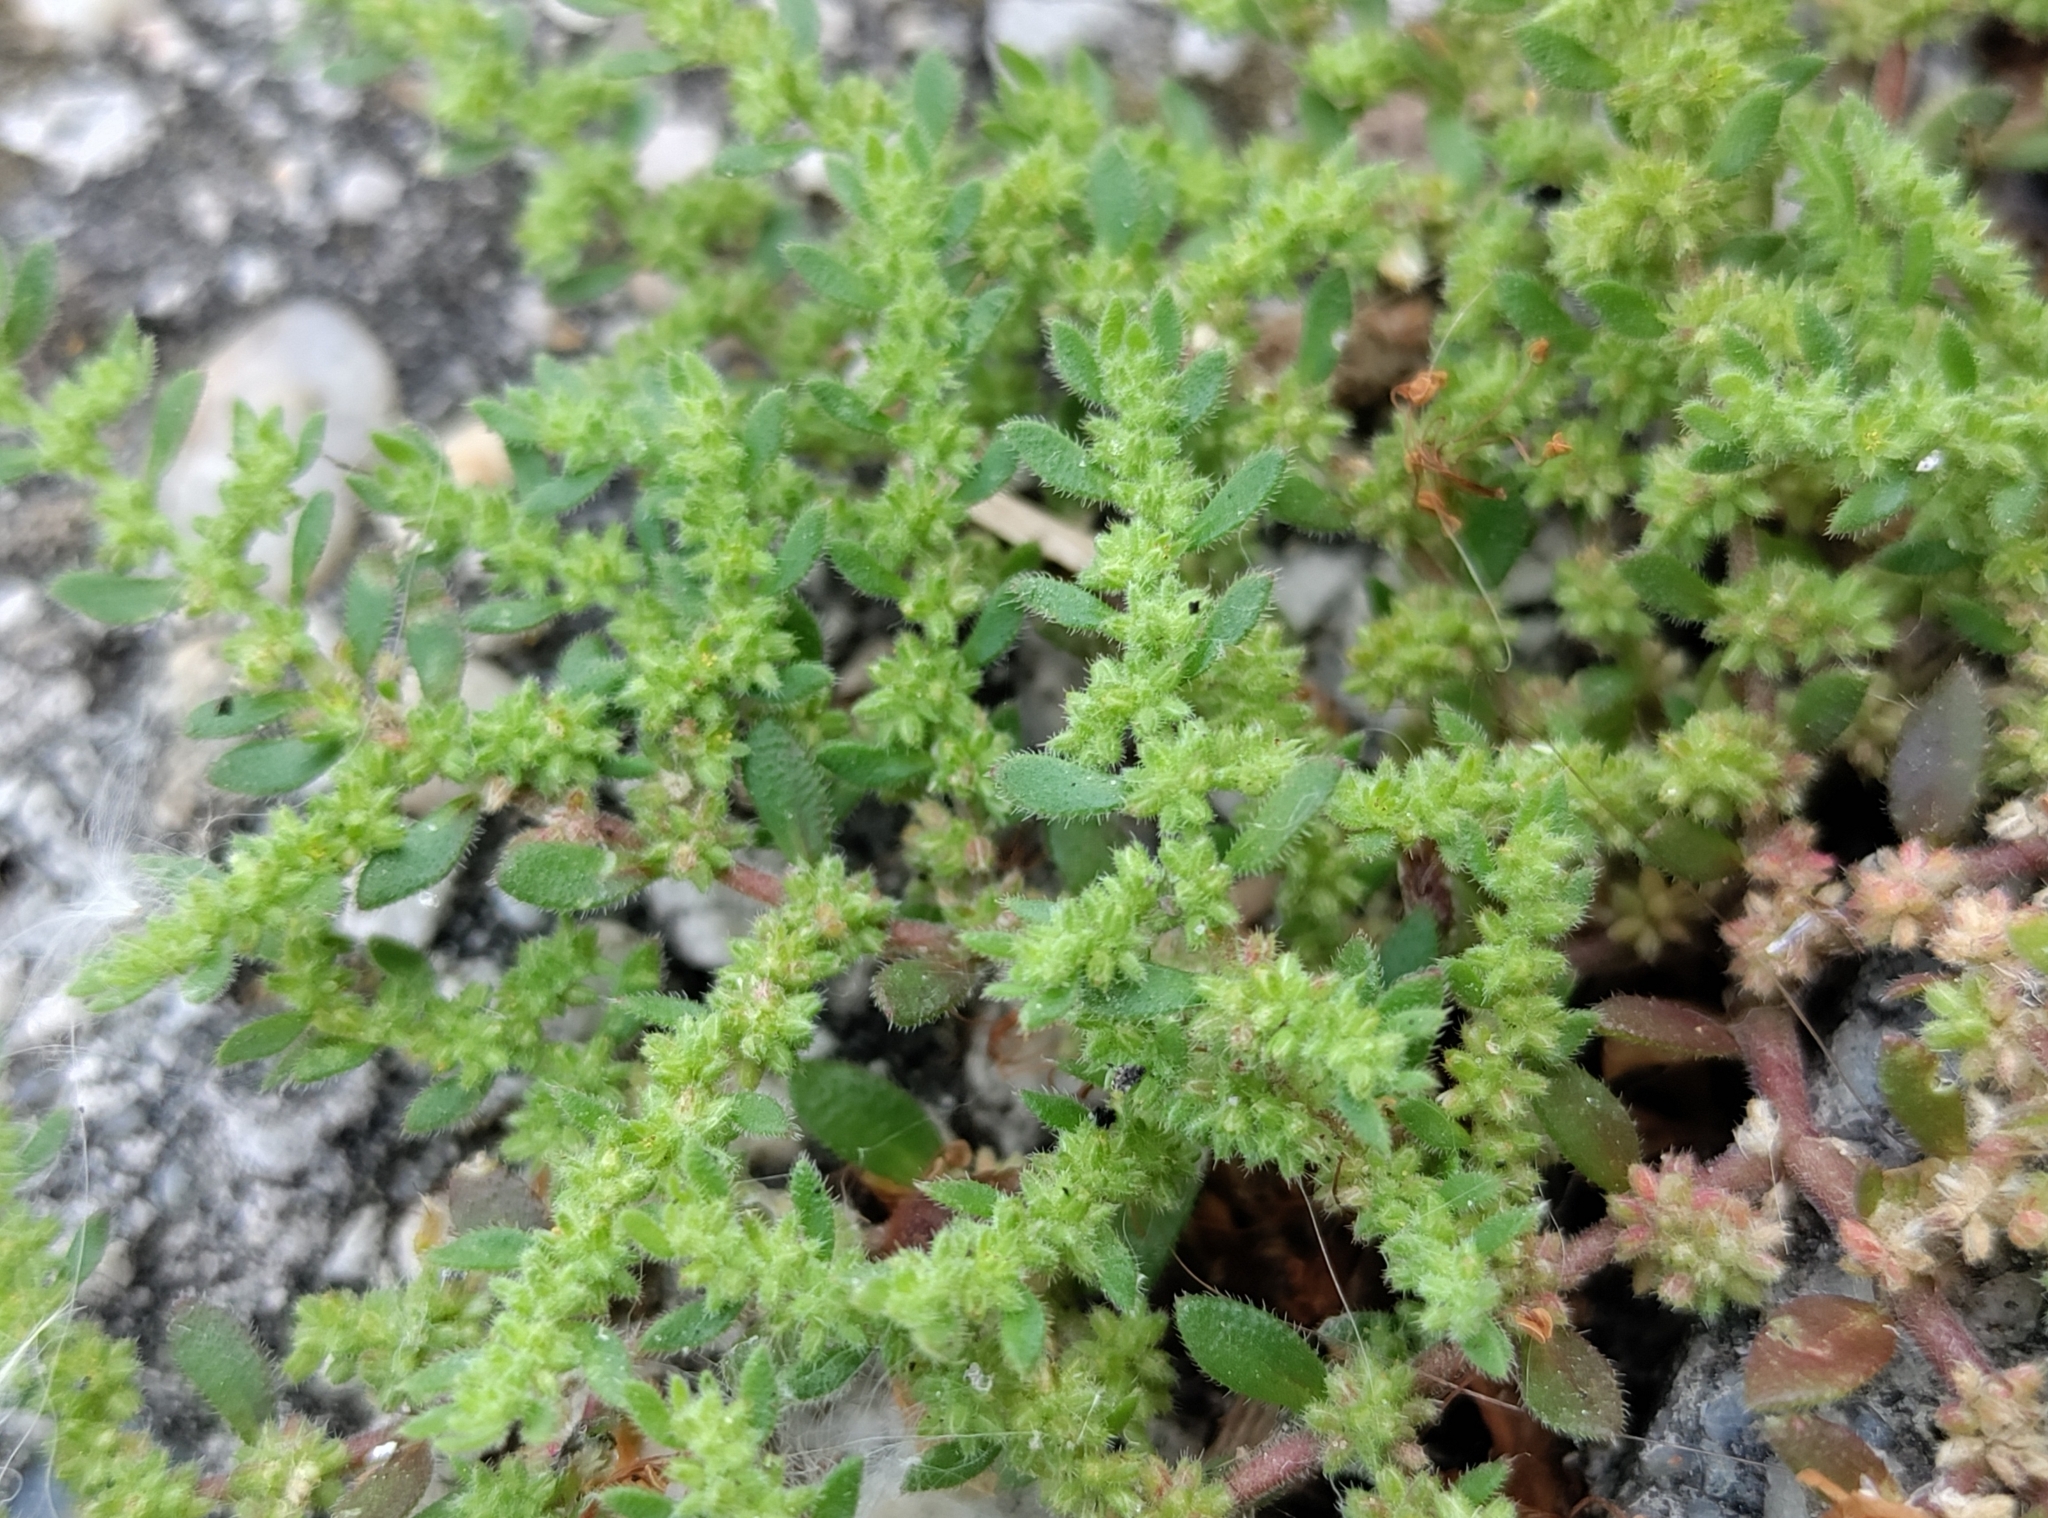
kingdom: Plantae
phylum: Tracheophyta
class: Magnoliopsida
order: Caryophyllales
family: Caryophyllaceae
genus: Herniaria
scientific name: Herniaria hirsuta
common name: Hairy rupturewort
